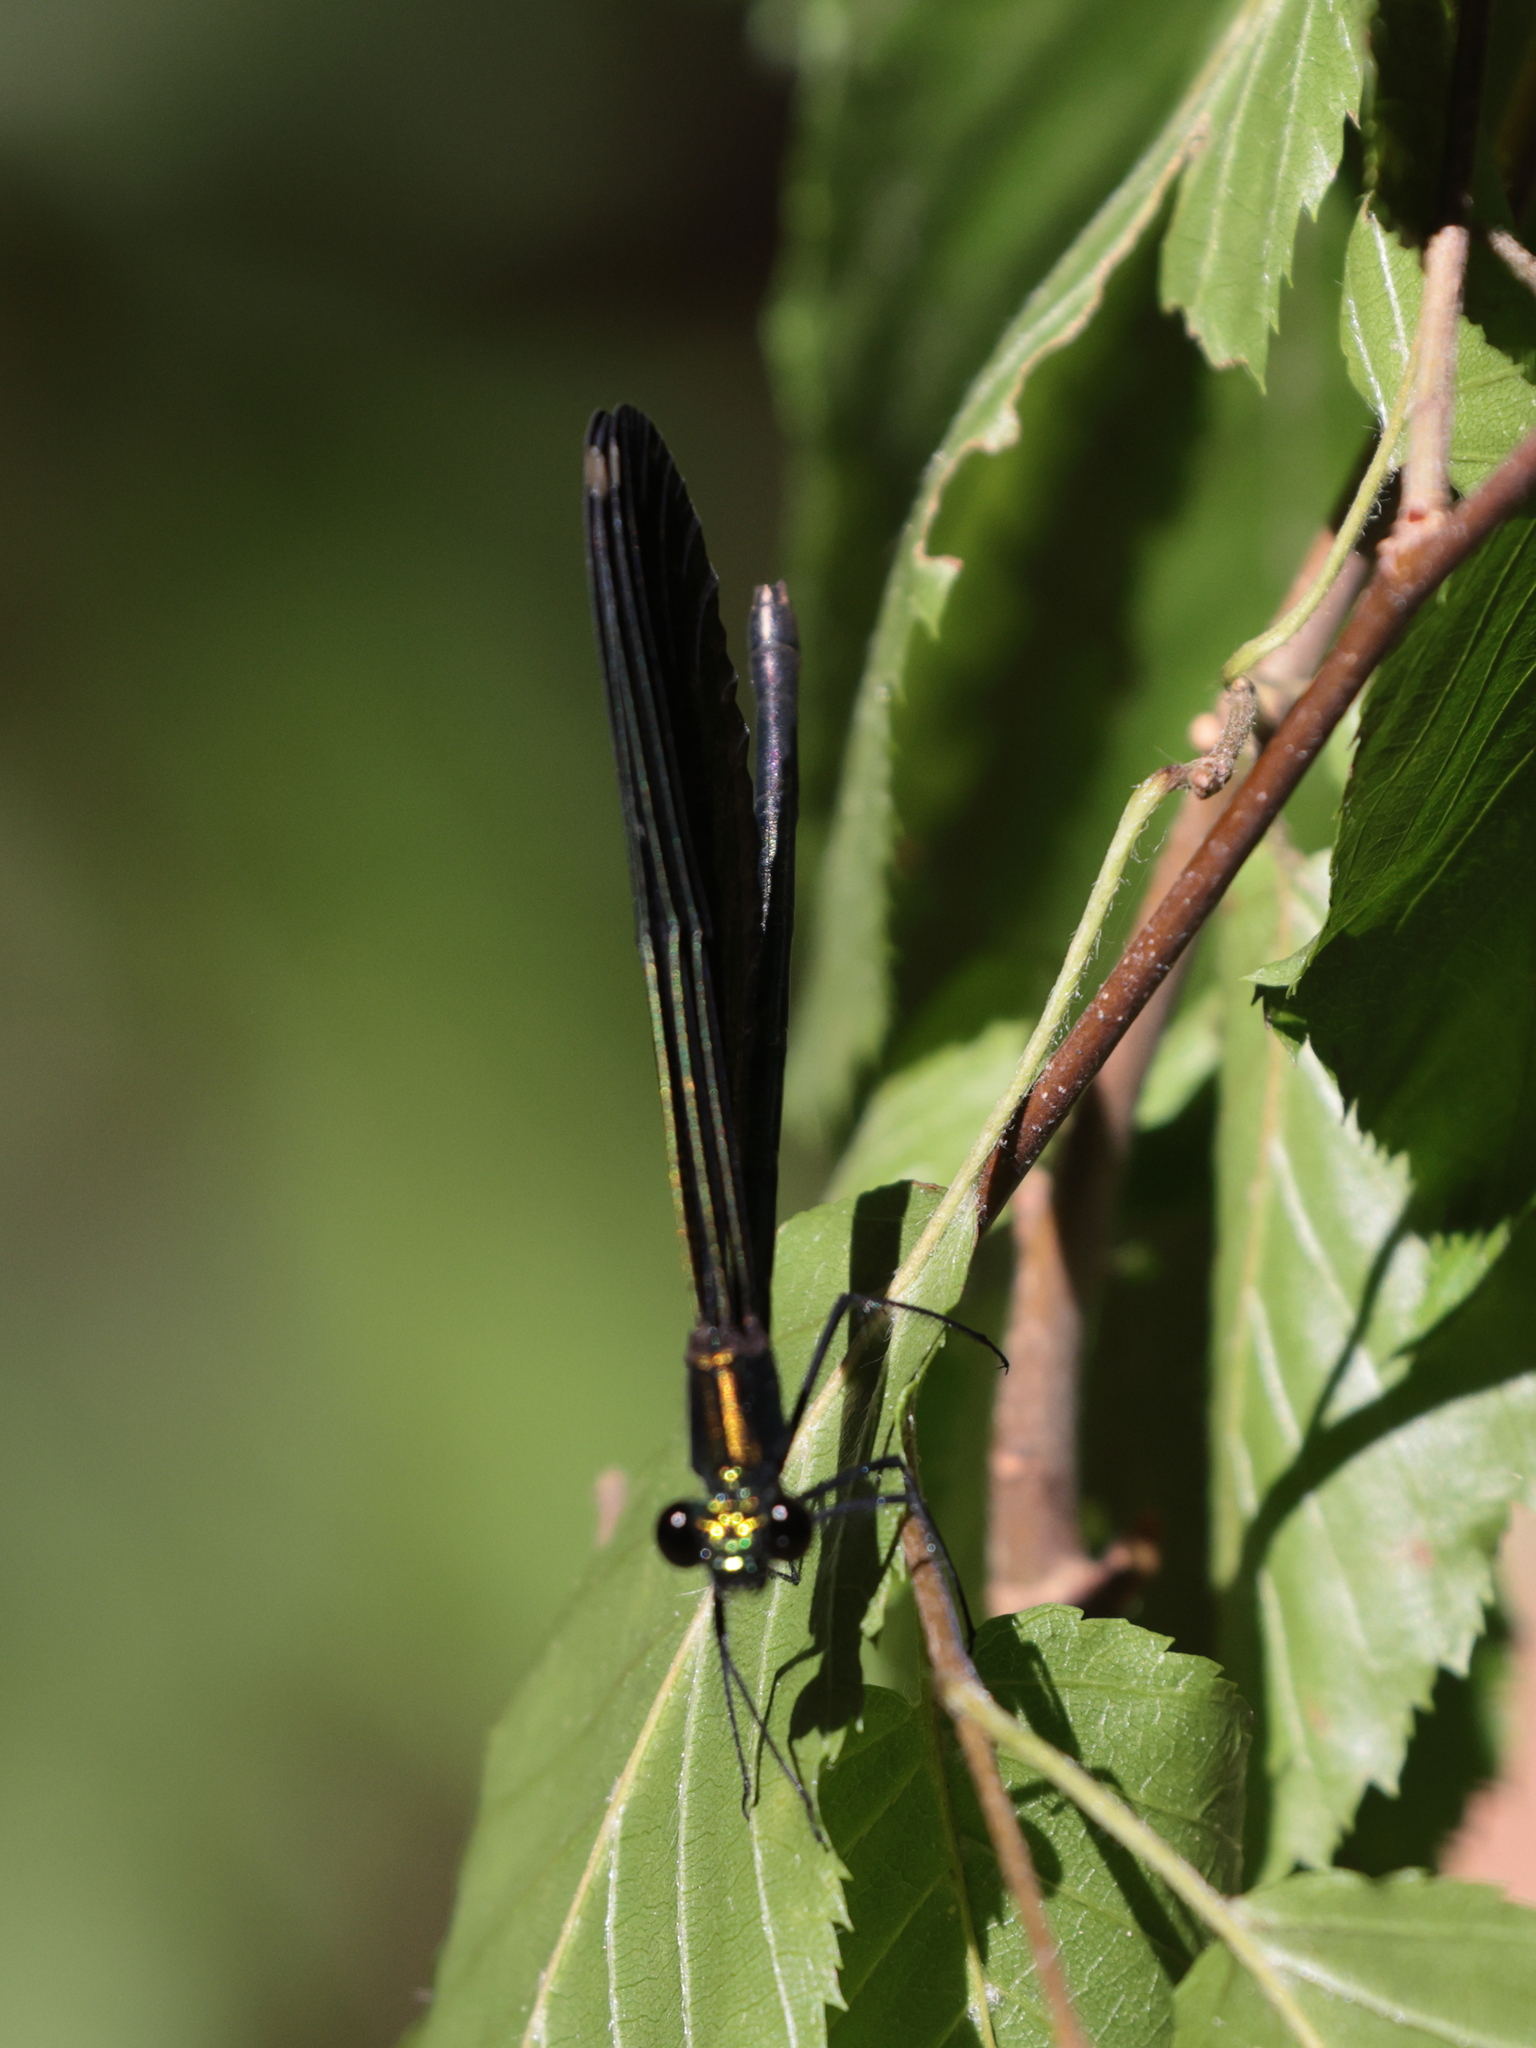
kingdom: Animalia
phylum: Arthropoda
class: Insecta
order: Odonata
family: Calopterygidae
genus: Calopteryx
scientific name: Calopteryx maculata
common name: Ebony jewelwing
